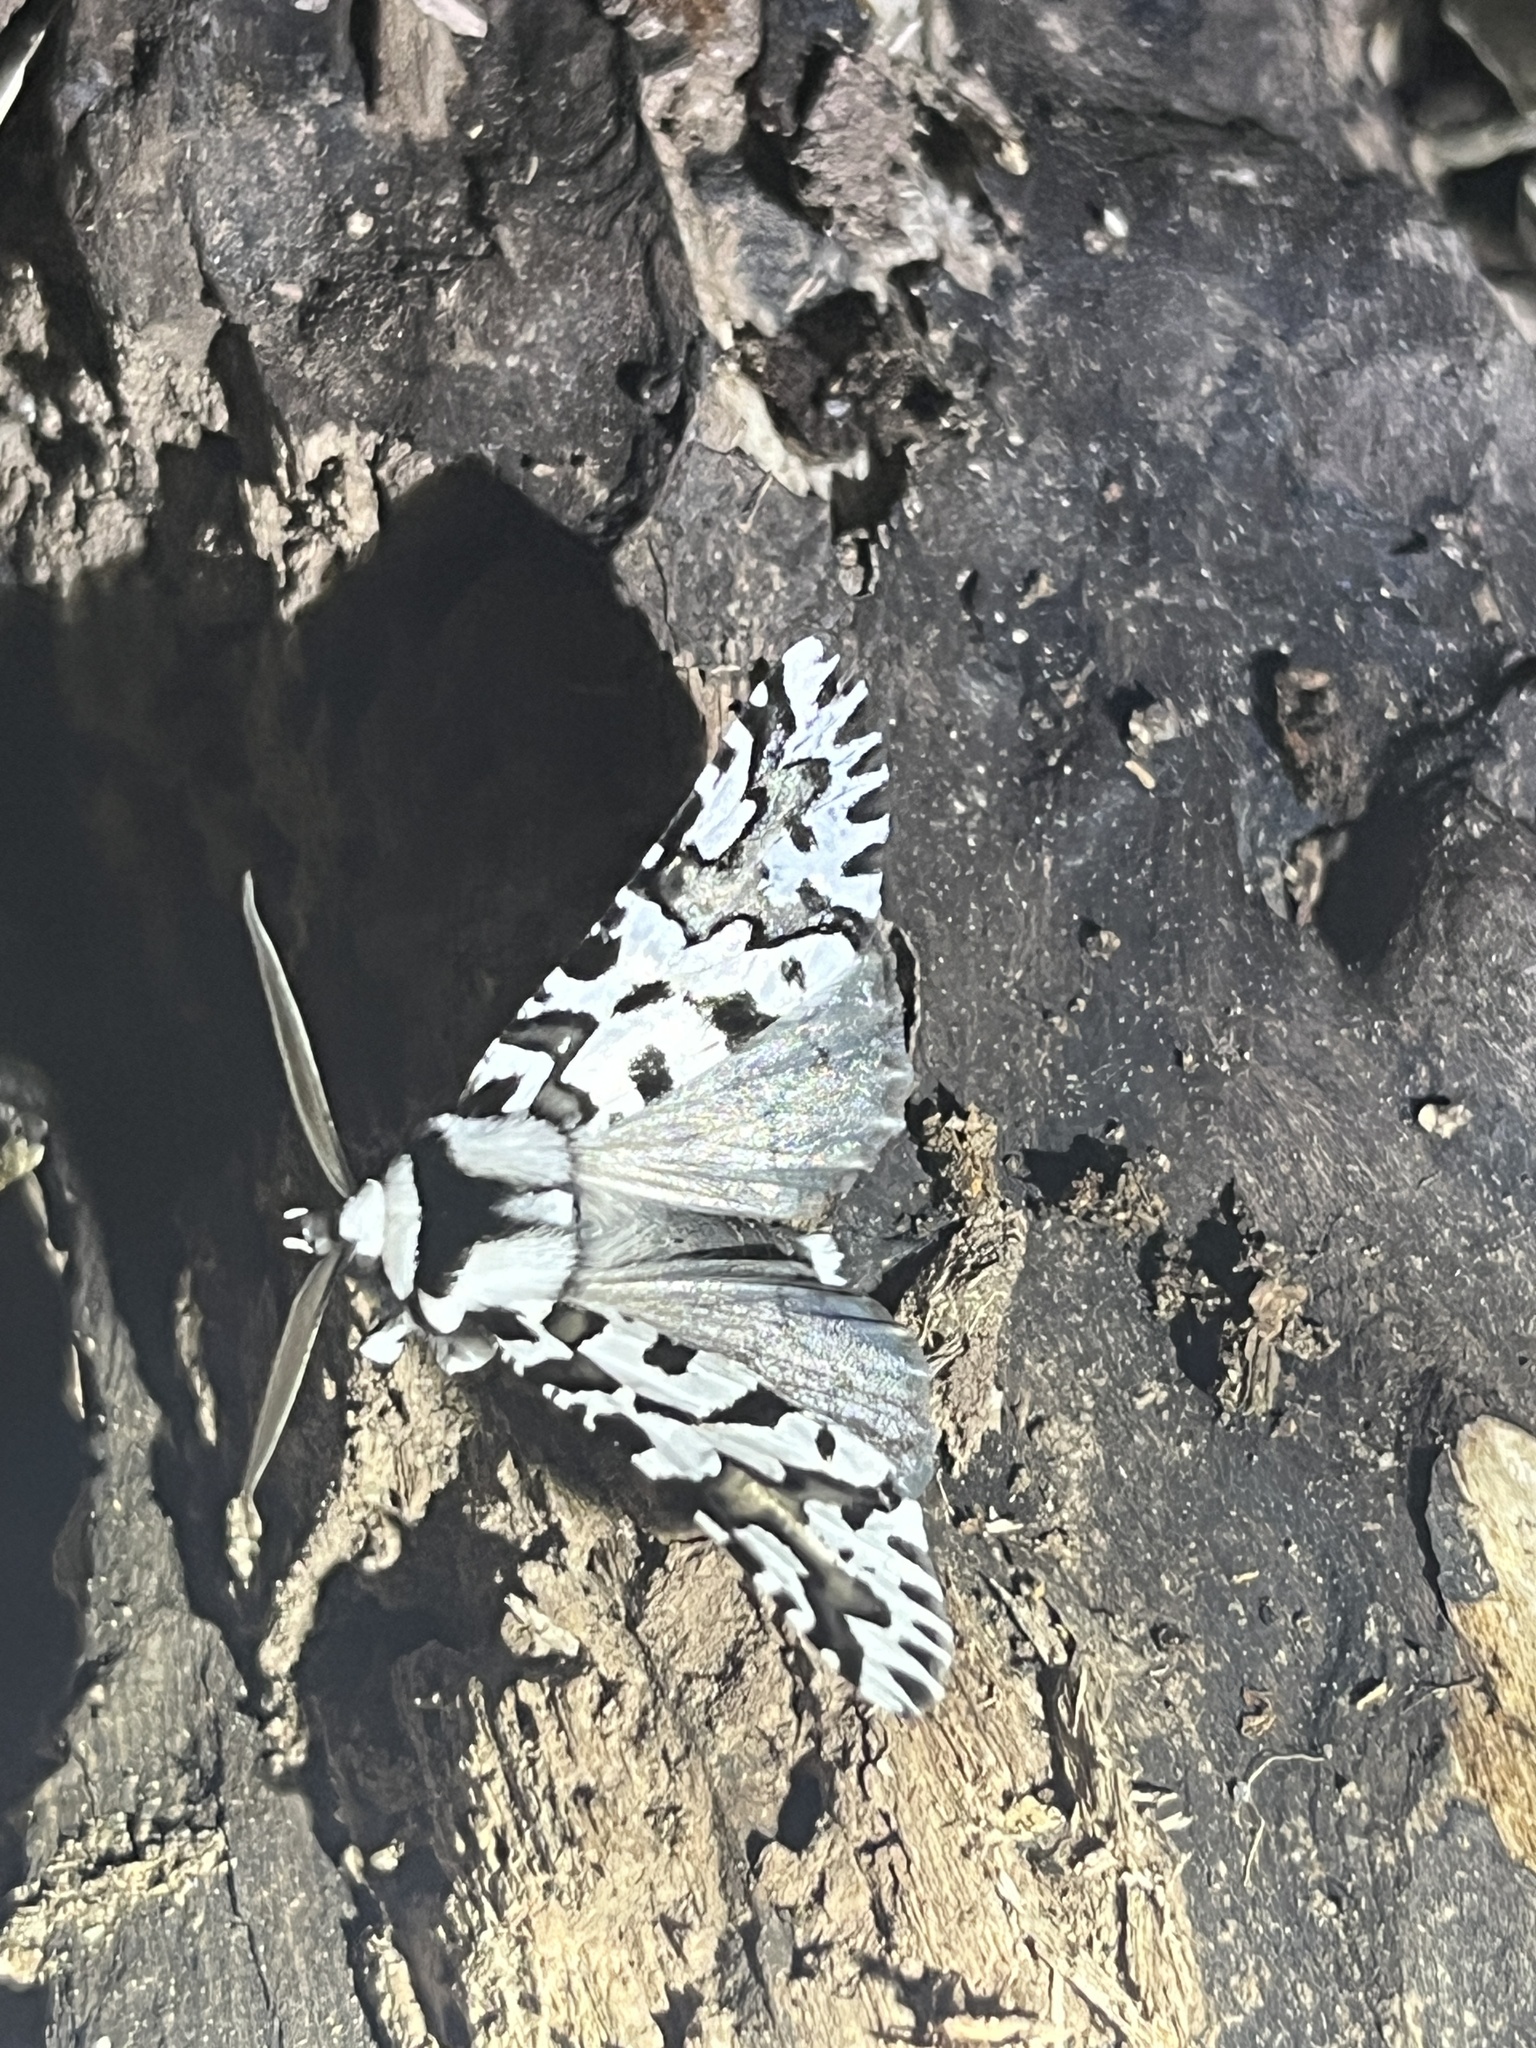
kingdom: Animalia
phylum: Arthropoda
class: Insecta
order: Lepidoptera
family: Geometridae
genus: Declana
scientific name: Declana
